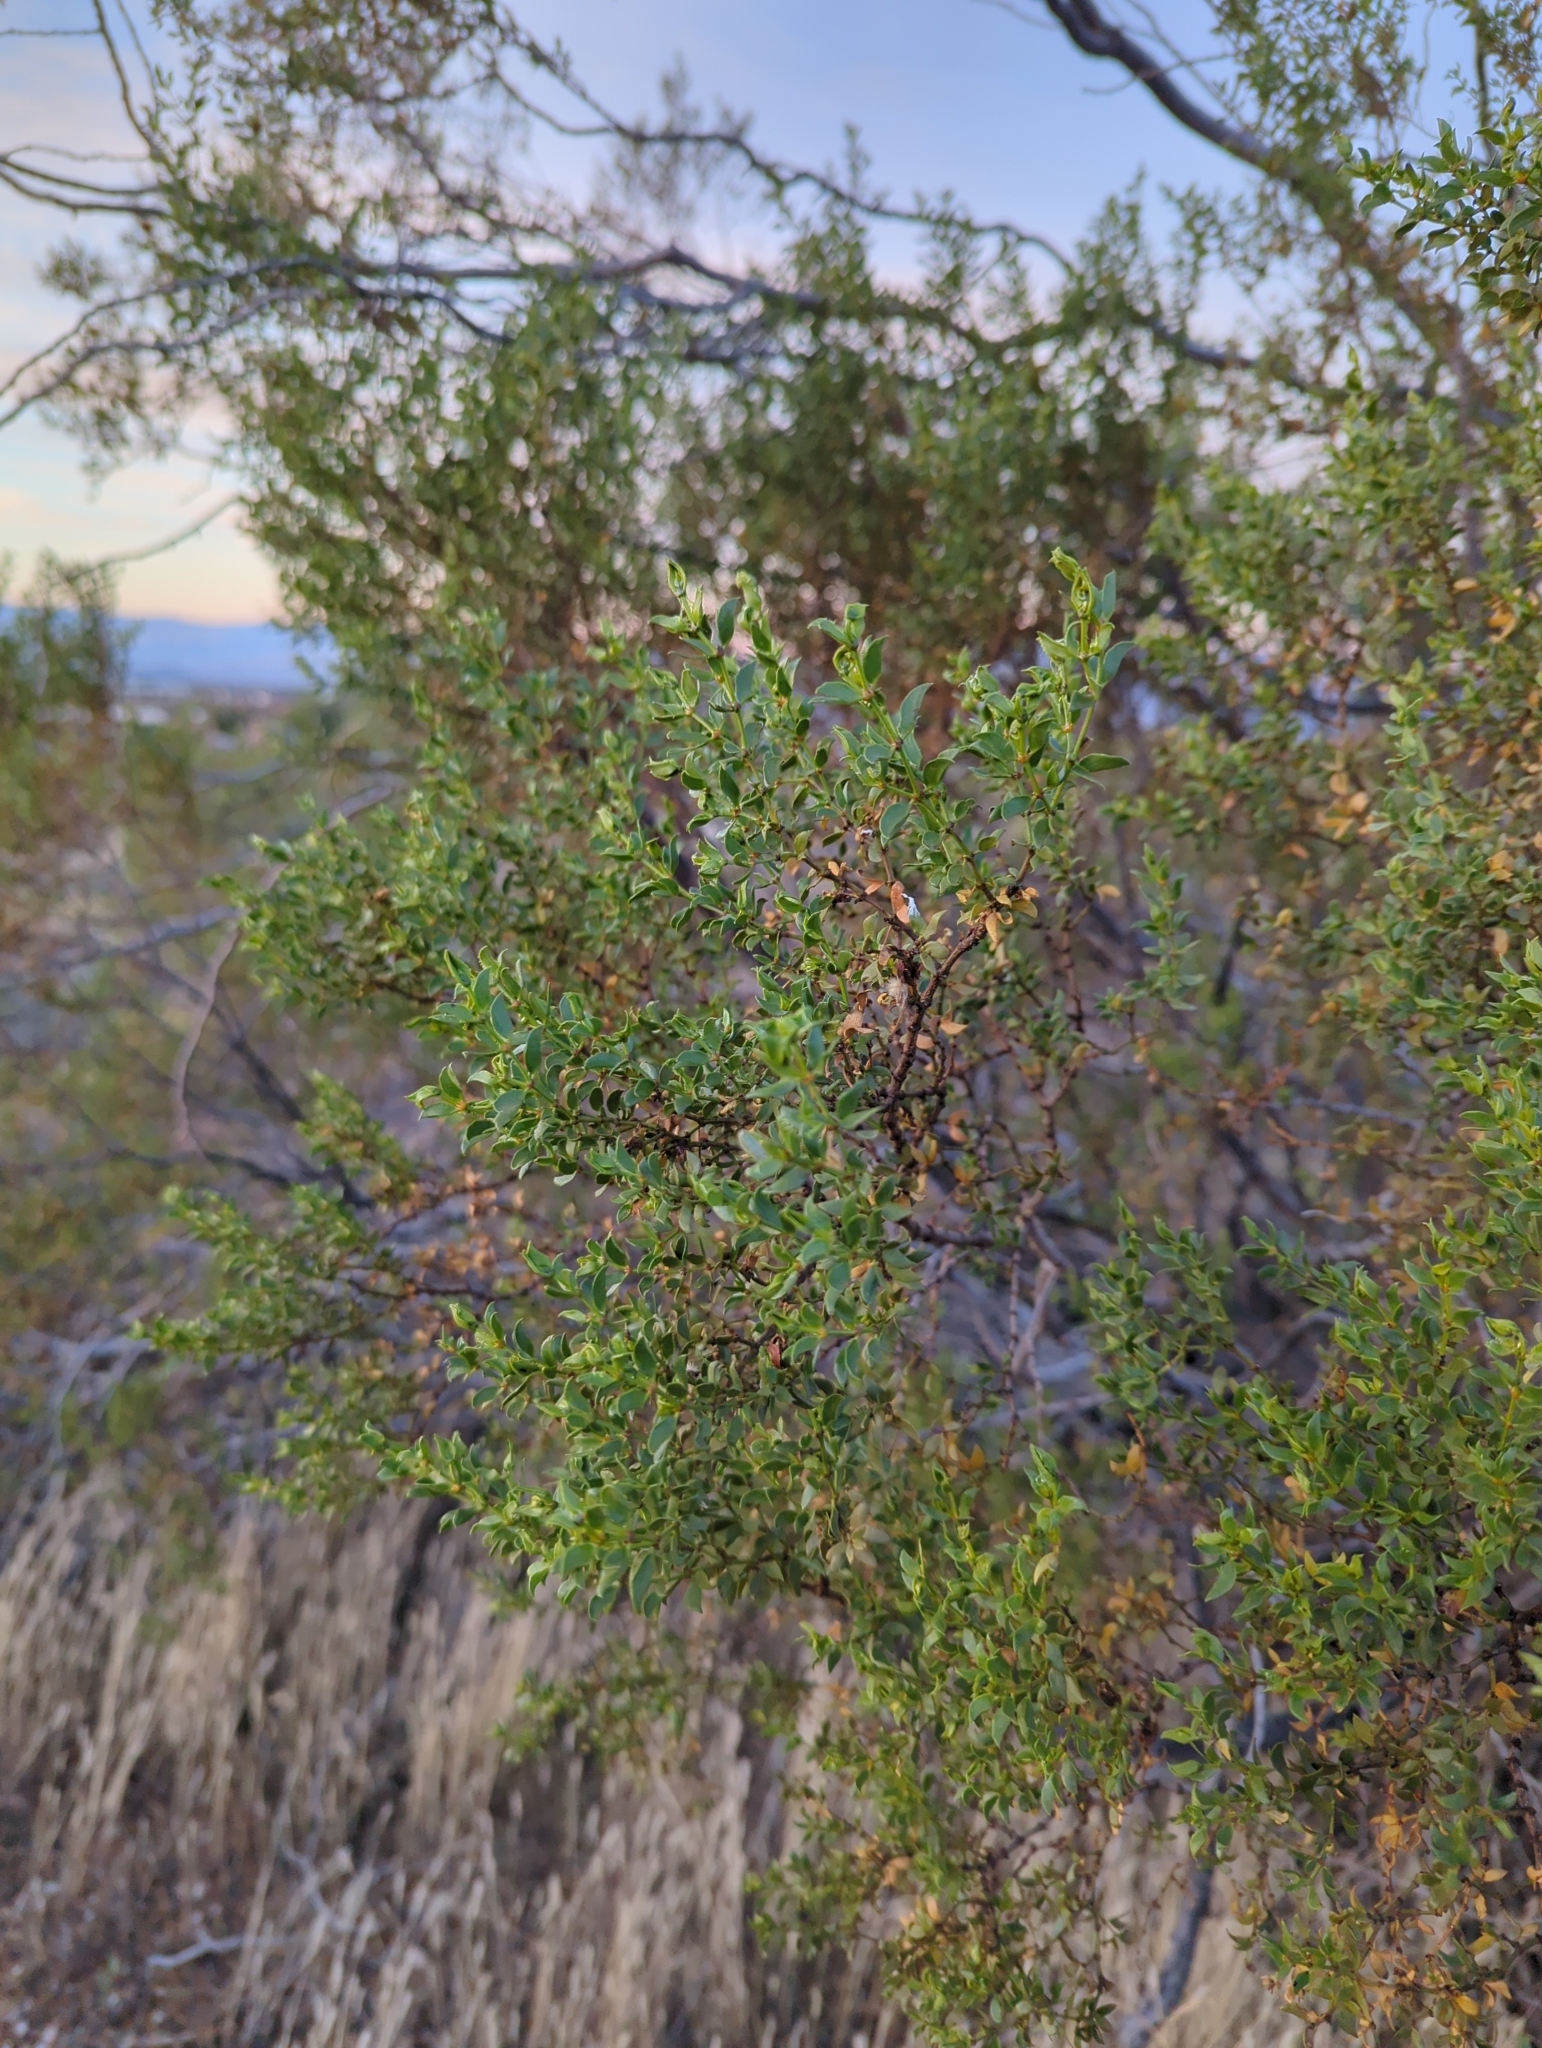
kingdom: Plantae
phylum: Tracheophyta
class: Magnoliopsida
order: Zygophyllales
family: Zygophyllaceae
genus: Larrea
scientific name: Larrea tridentata
